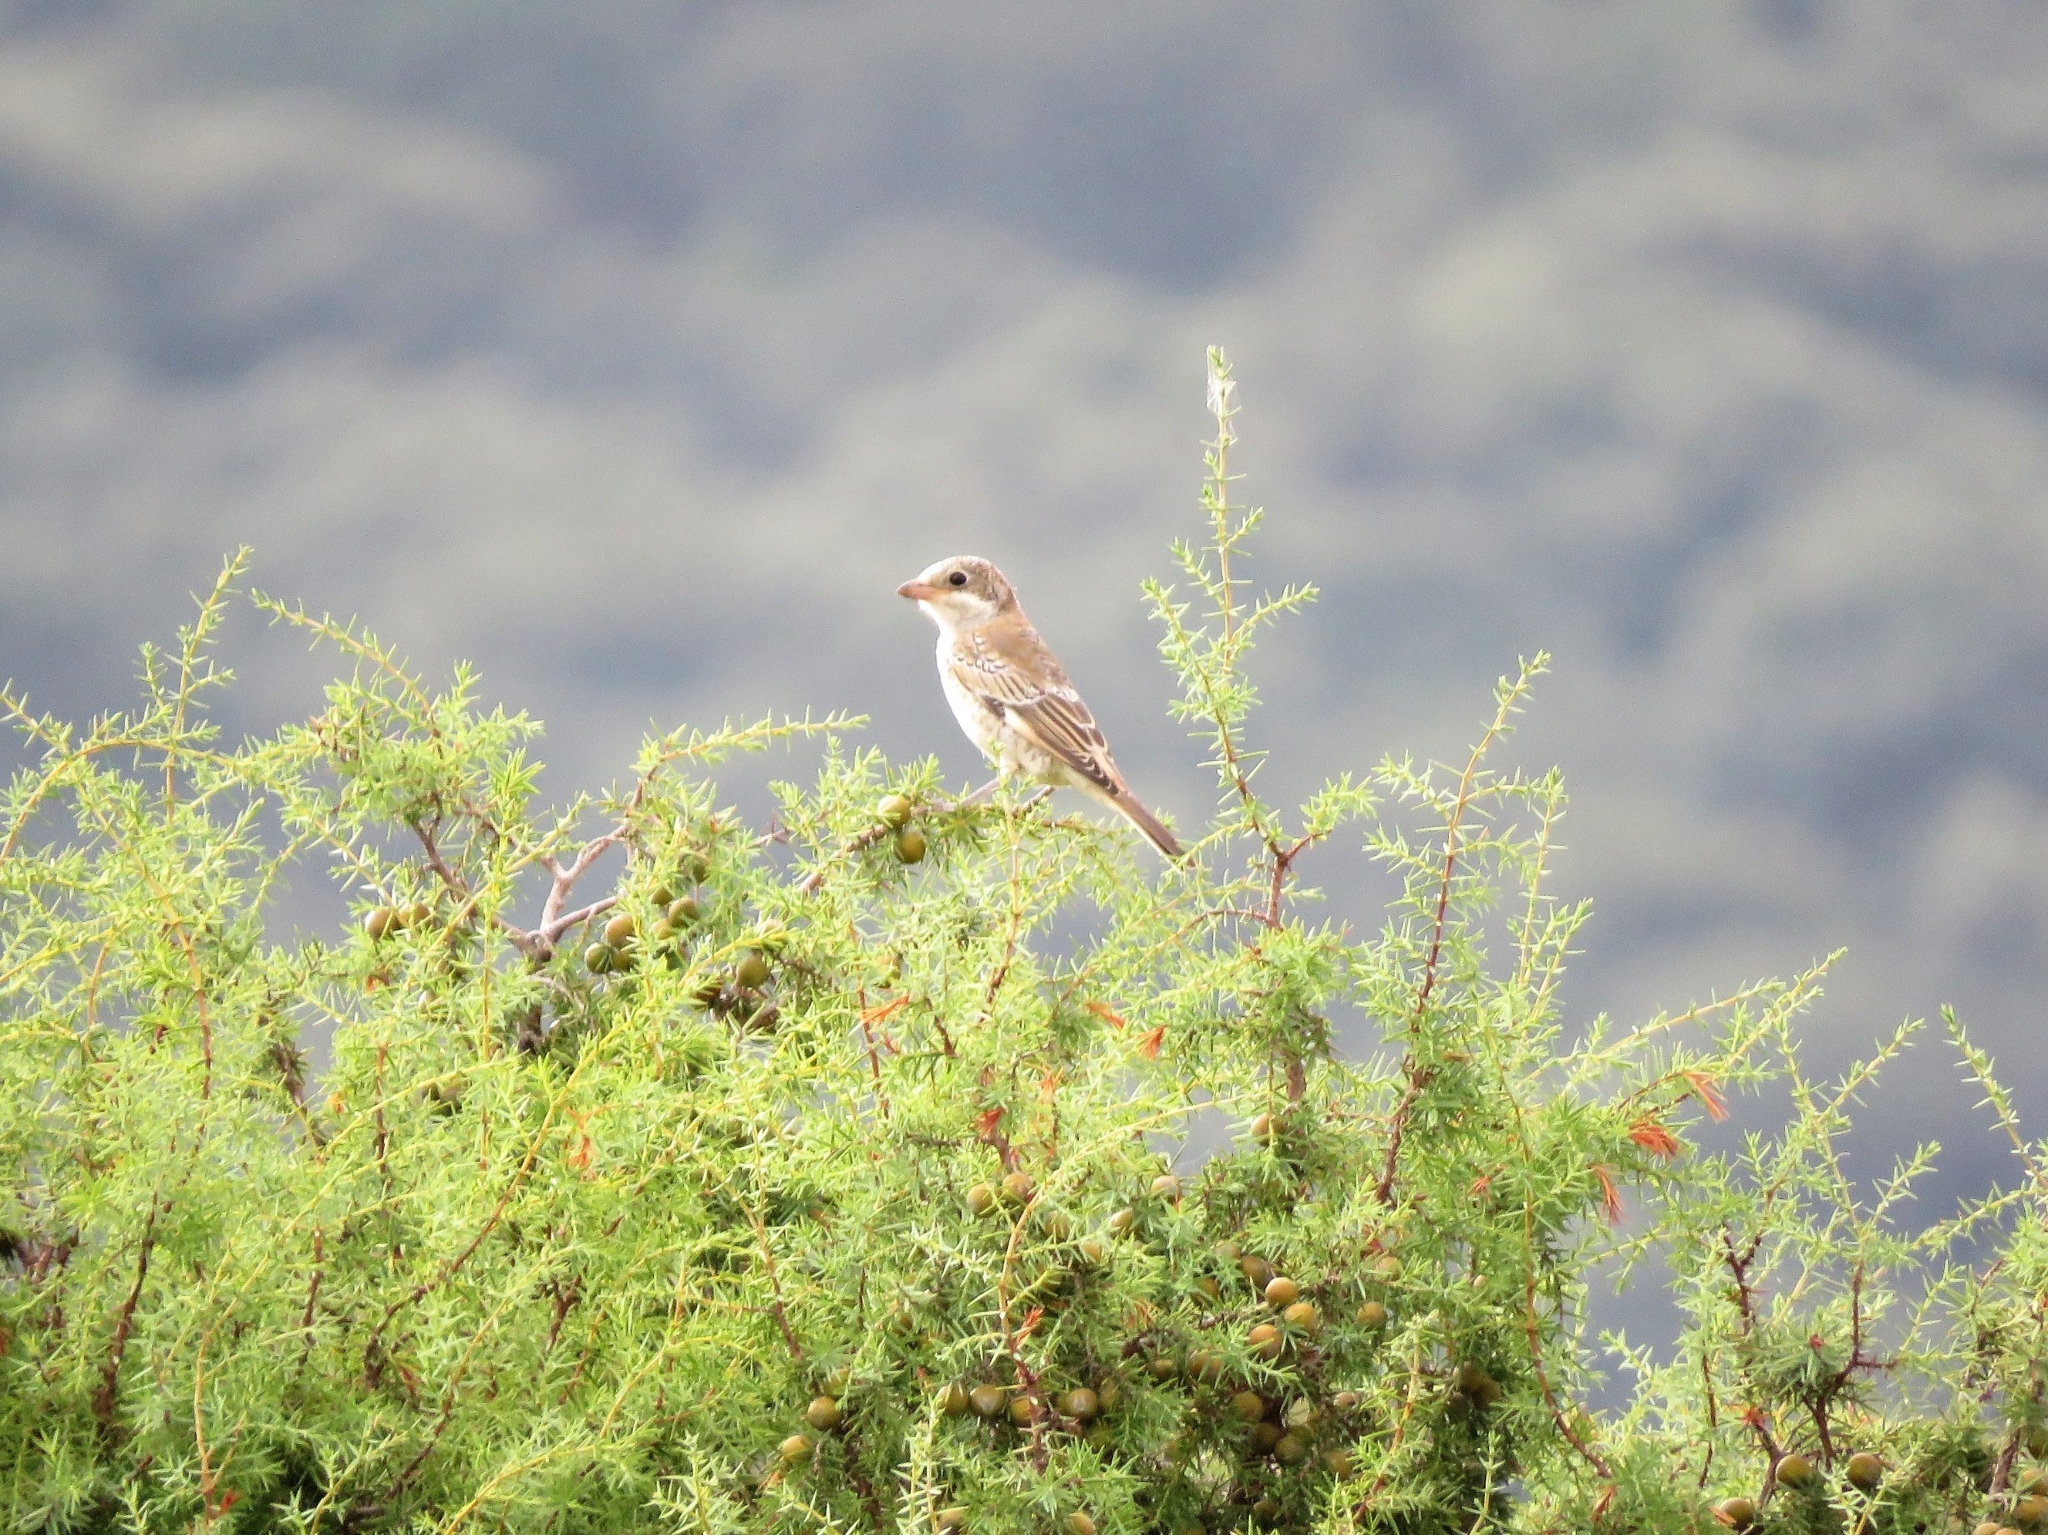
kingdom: Animalia
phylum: Chordata
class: Aves
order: Passeriformes
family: Laniidae
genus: Lanius
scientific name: Lanius senator
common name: Woodchat shrike
